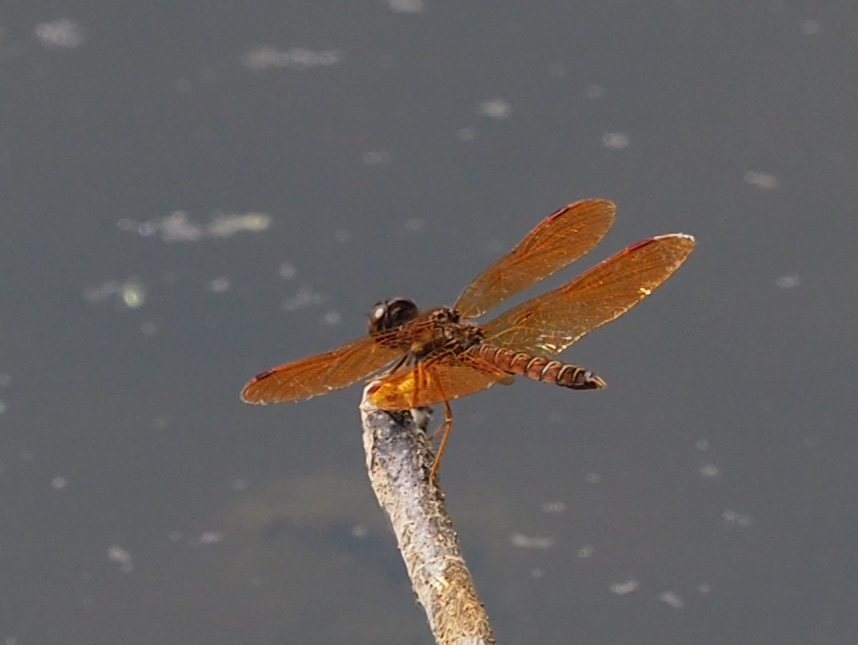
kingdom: Animalia
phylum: Arthropoda
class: Insecta
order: Odonata
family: Libellulidae
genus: Perithemis
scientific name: Perithemis tenera
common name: Eastern amberwing
